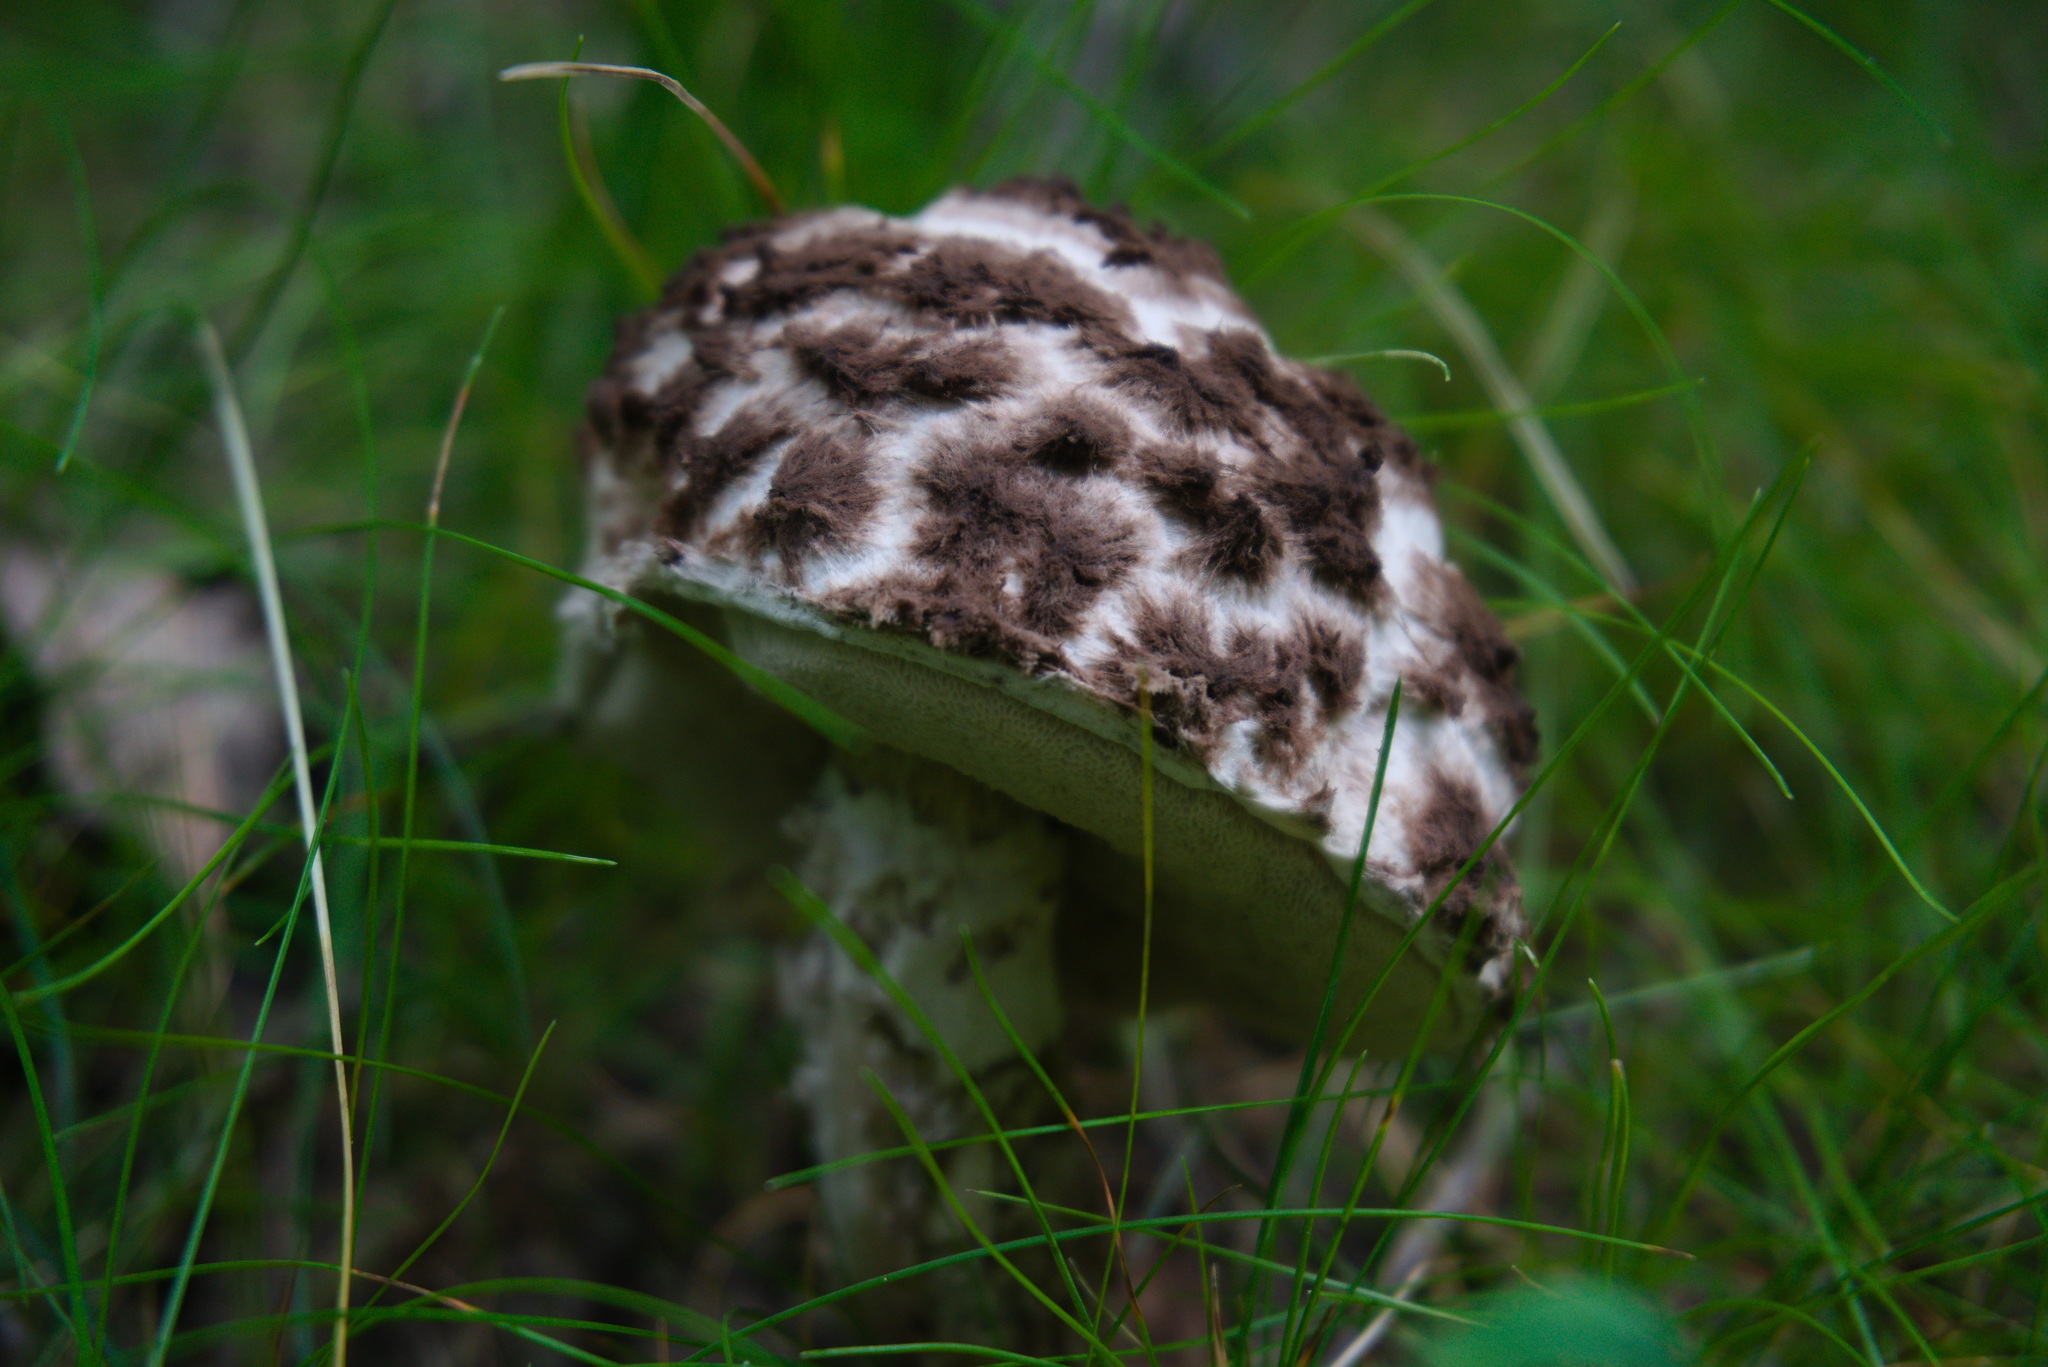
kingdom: Fungi
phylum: Basidiomycota
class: Agaricomycetes
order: Boletales
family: Boletaceae
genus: Strobilomyces
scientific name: Strobilomyces strobilaceus
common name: Old man of the woods
